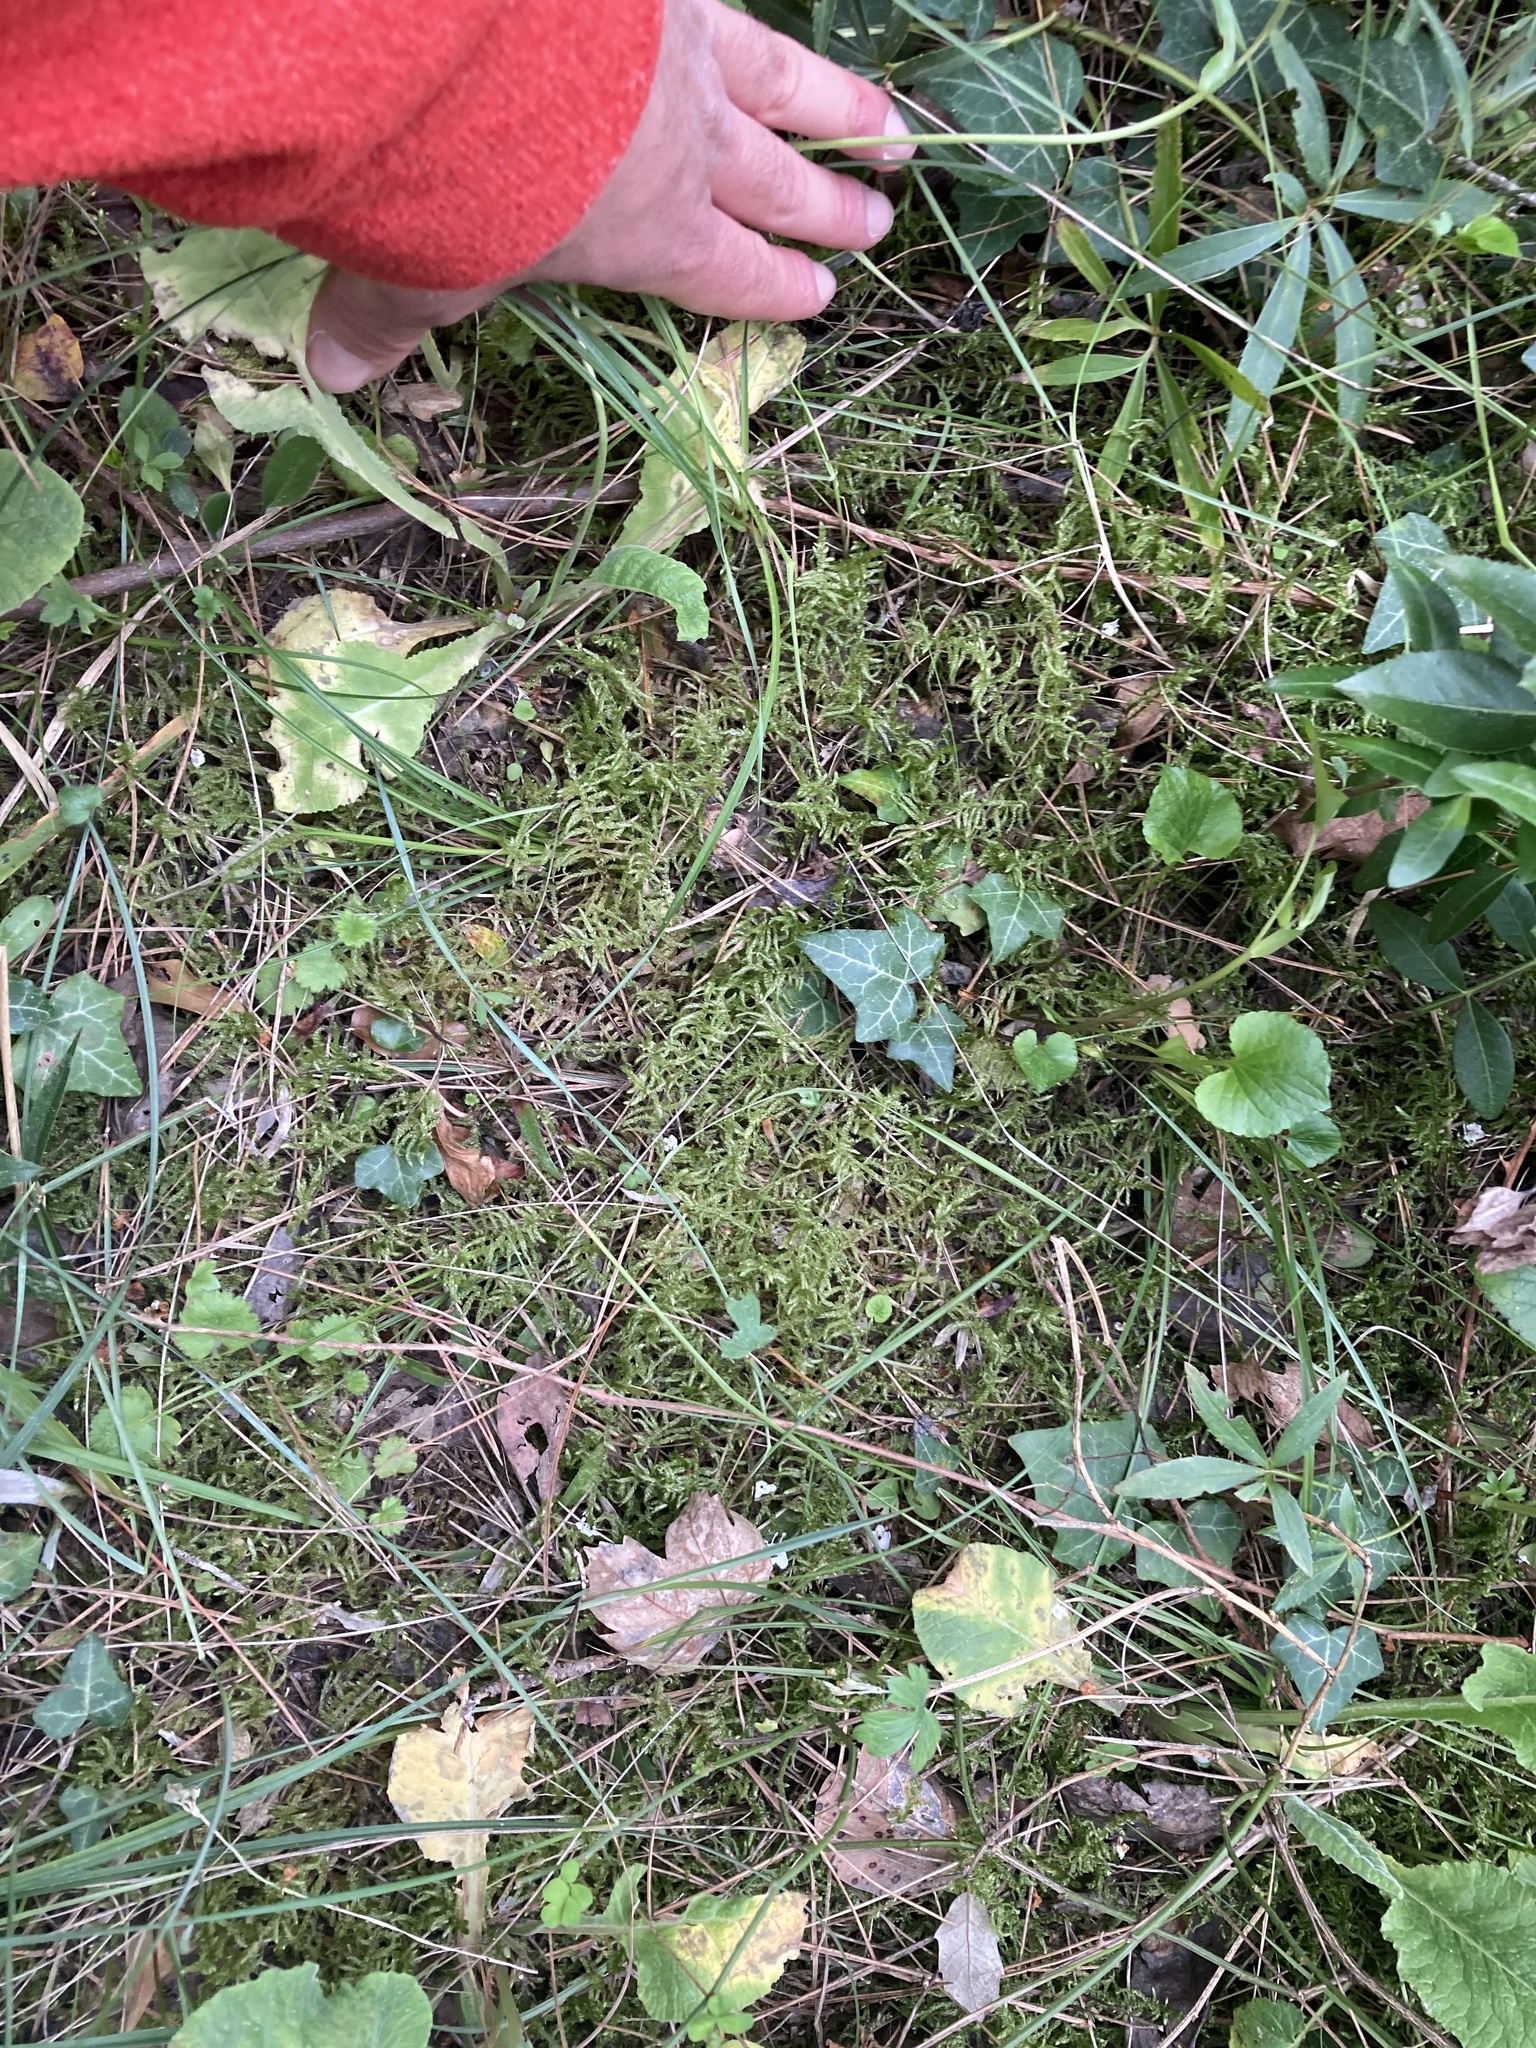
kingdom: Plantae
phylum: Bryophyta
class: Bryopsida
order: Hypnales
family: Brachytheciaceae
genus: Pseudoscleropodium
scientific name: Pseudoscleropodium purum
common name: Neat feather-moss
